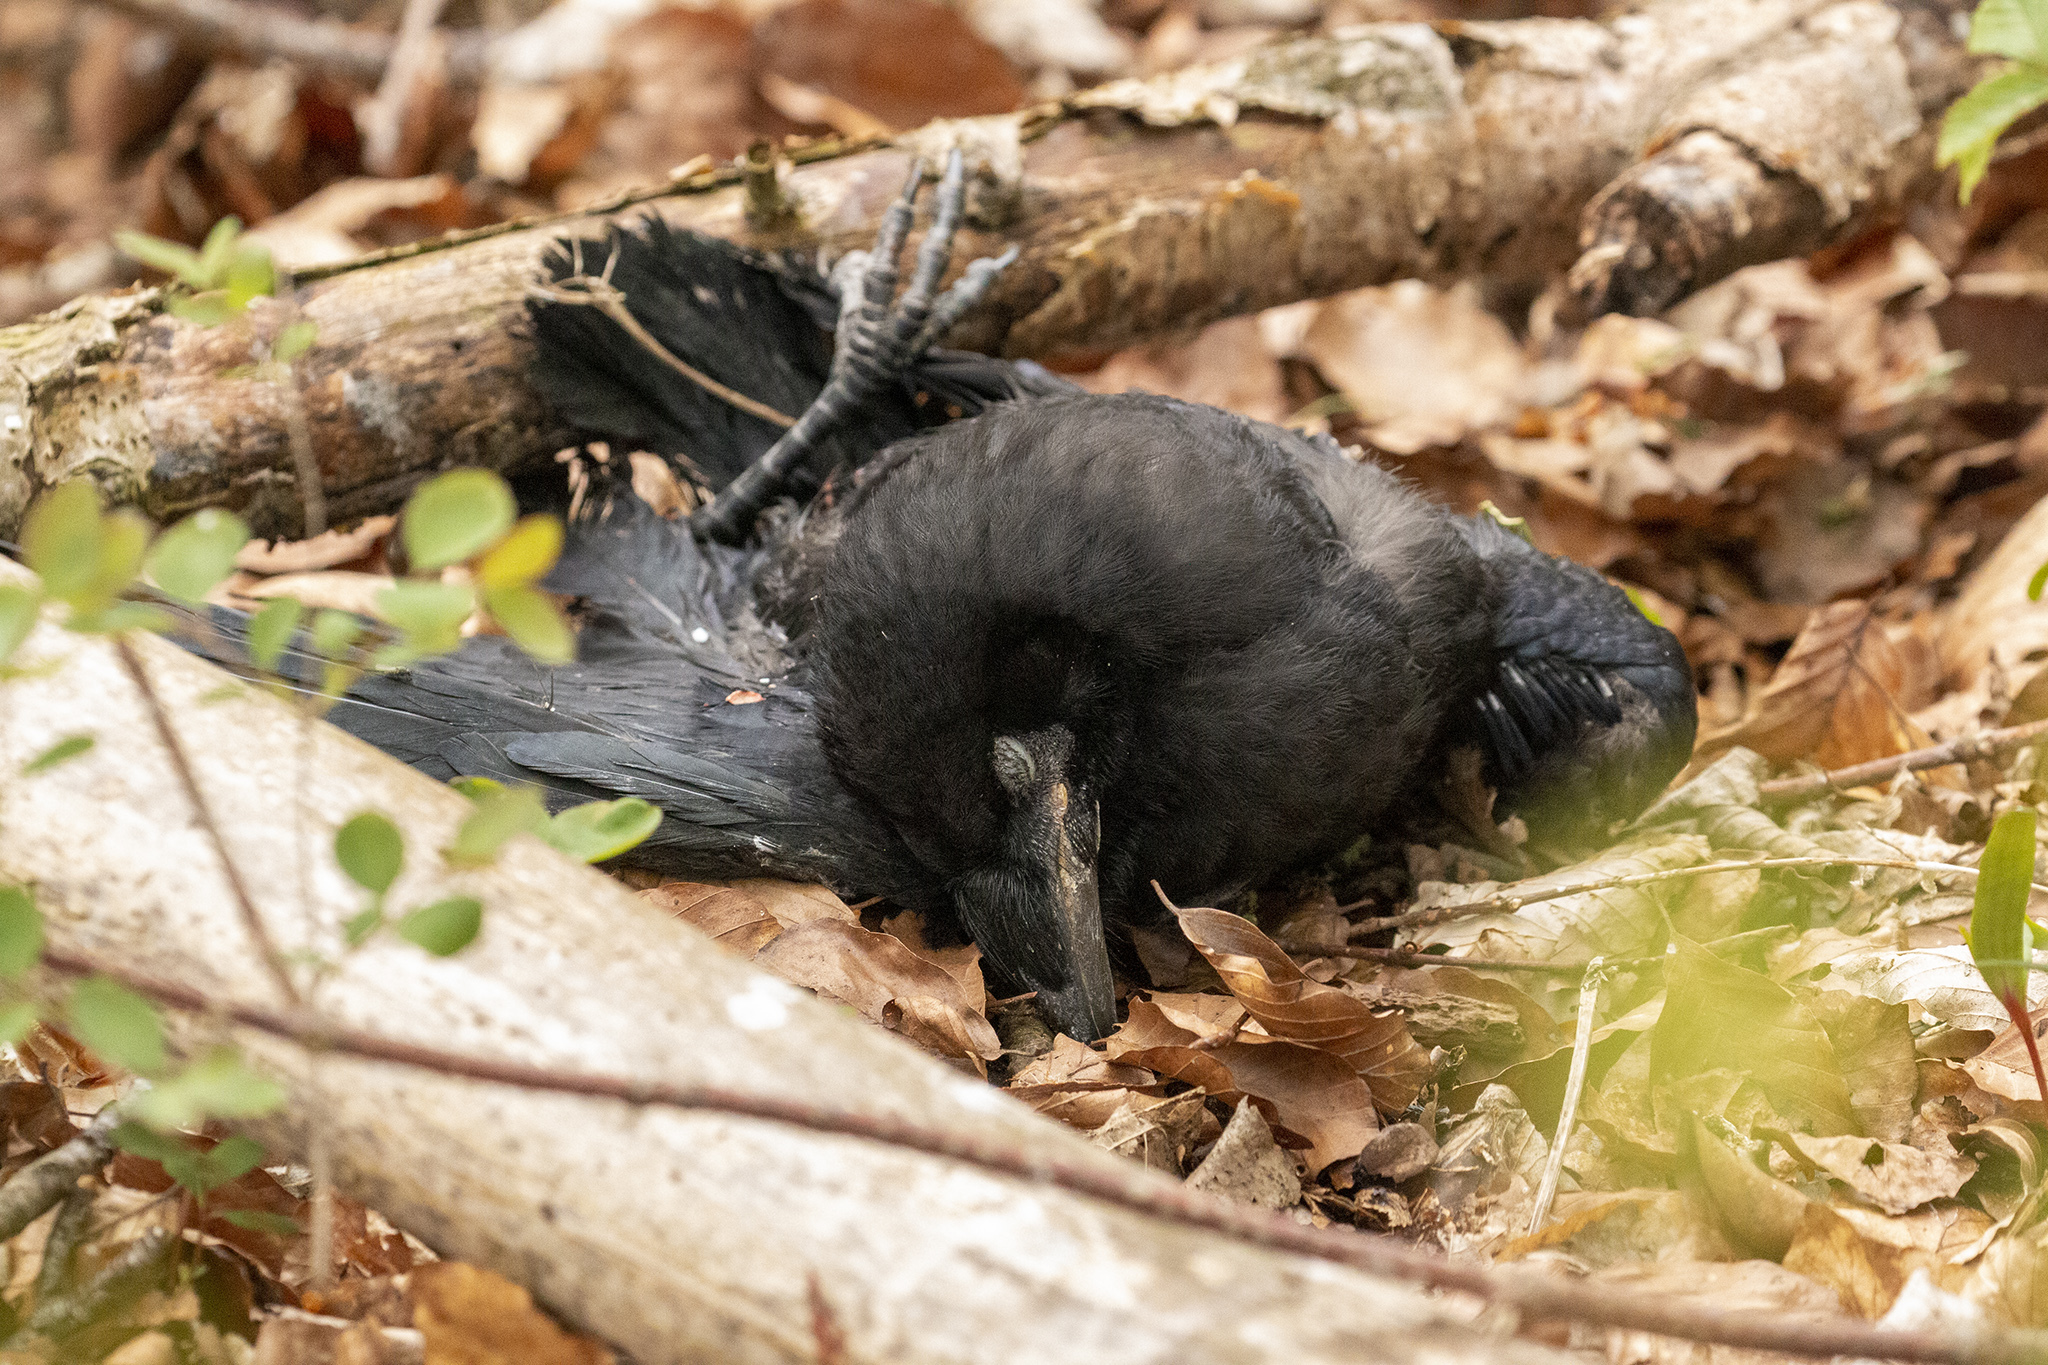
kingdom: Animalia
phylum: Chordata
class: Aves
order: Passeriformes
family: Corvidae
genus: Corvus
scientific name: Corvus frugilegus
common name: Rook
